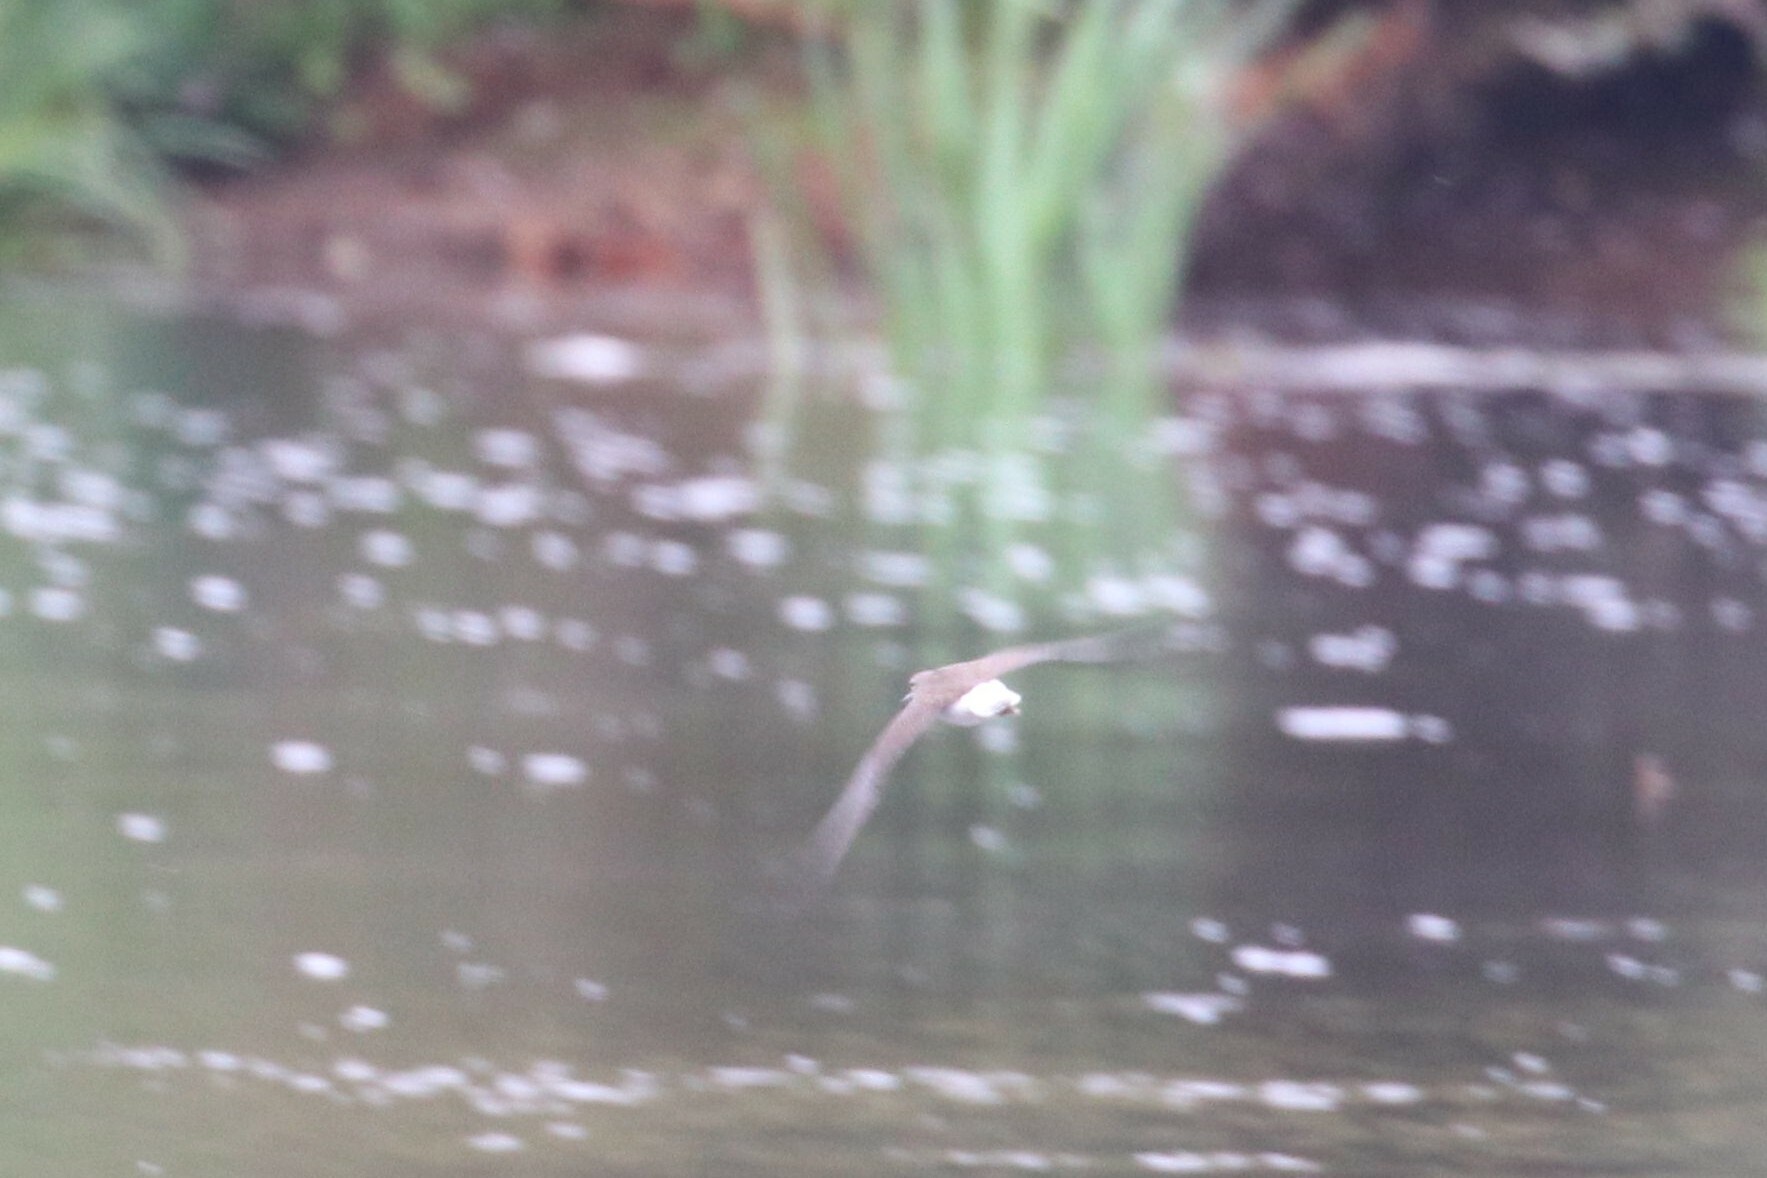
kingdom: Animalia
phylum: Chordata
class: Aves
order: Charadriiformes
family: Scolopacidae
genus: Tringa
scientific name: Tringa ochropus
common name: Green sandpiper
